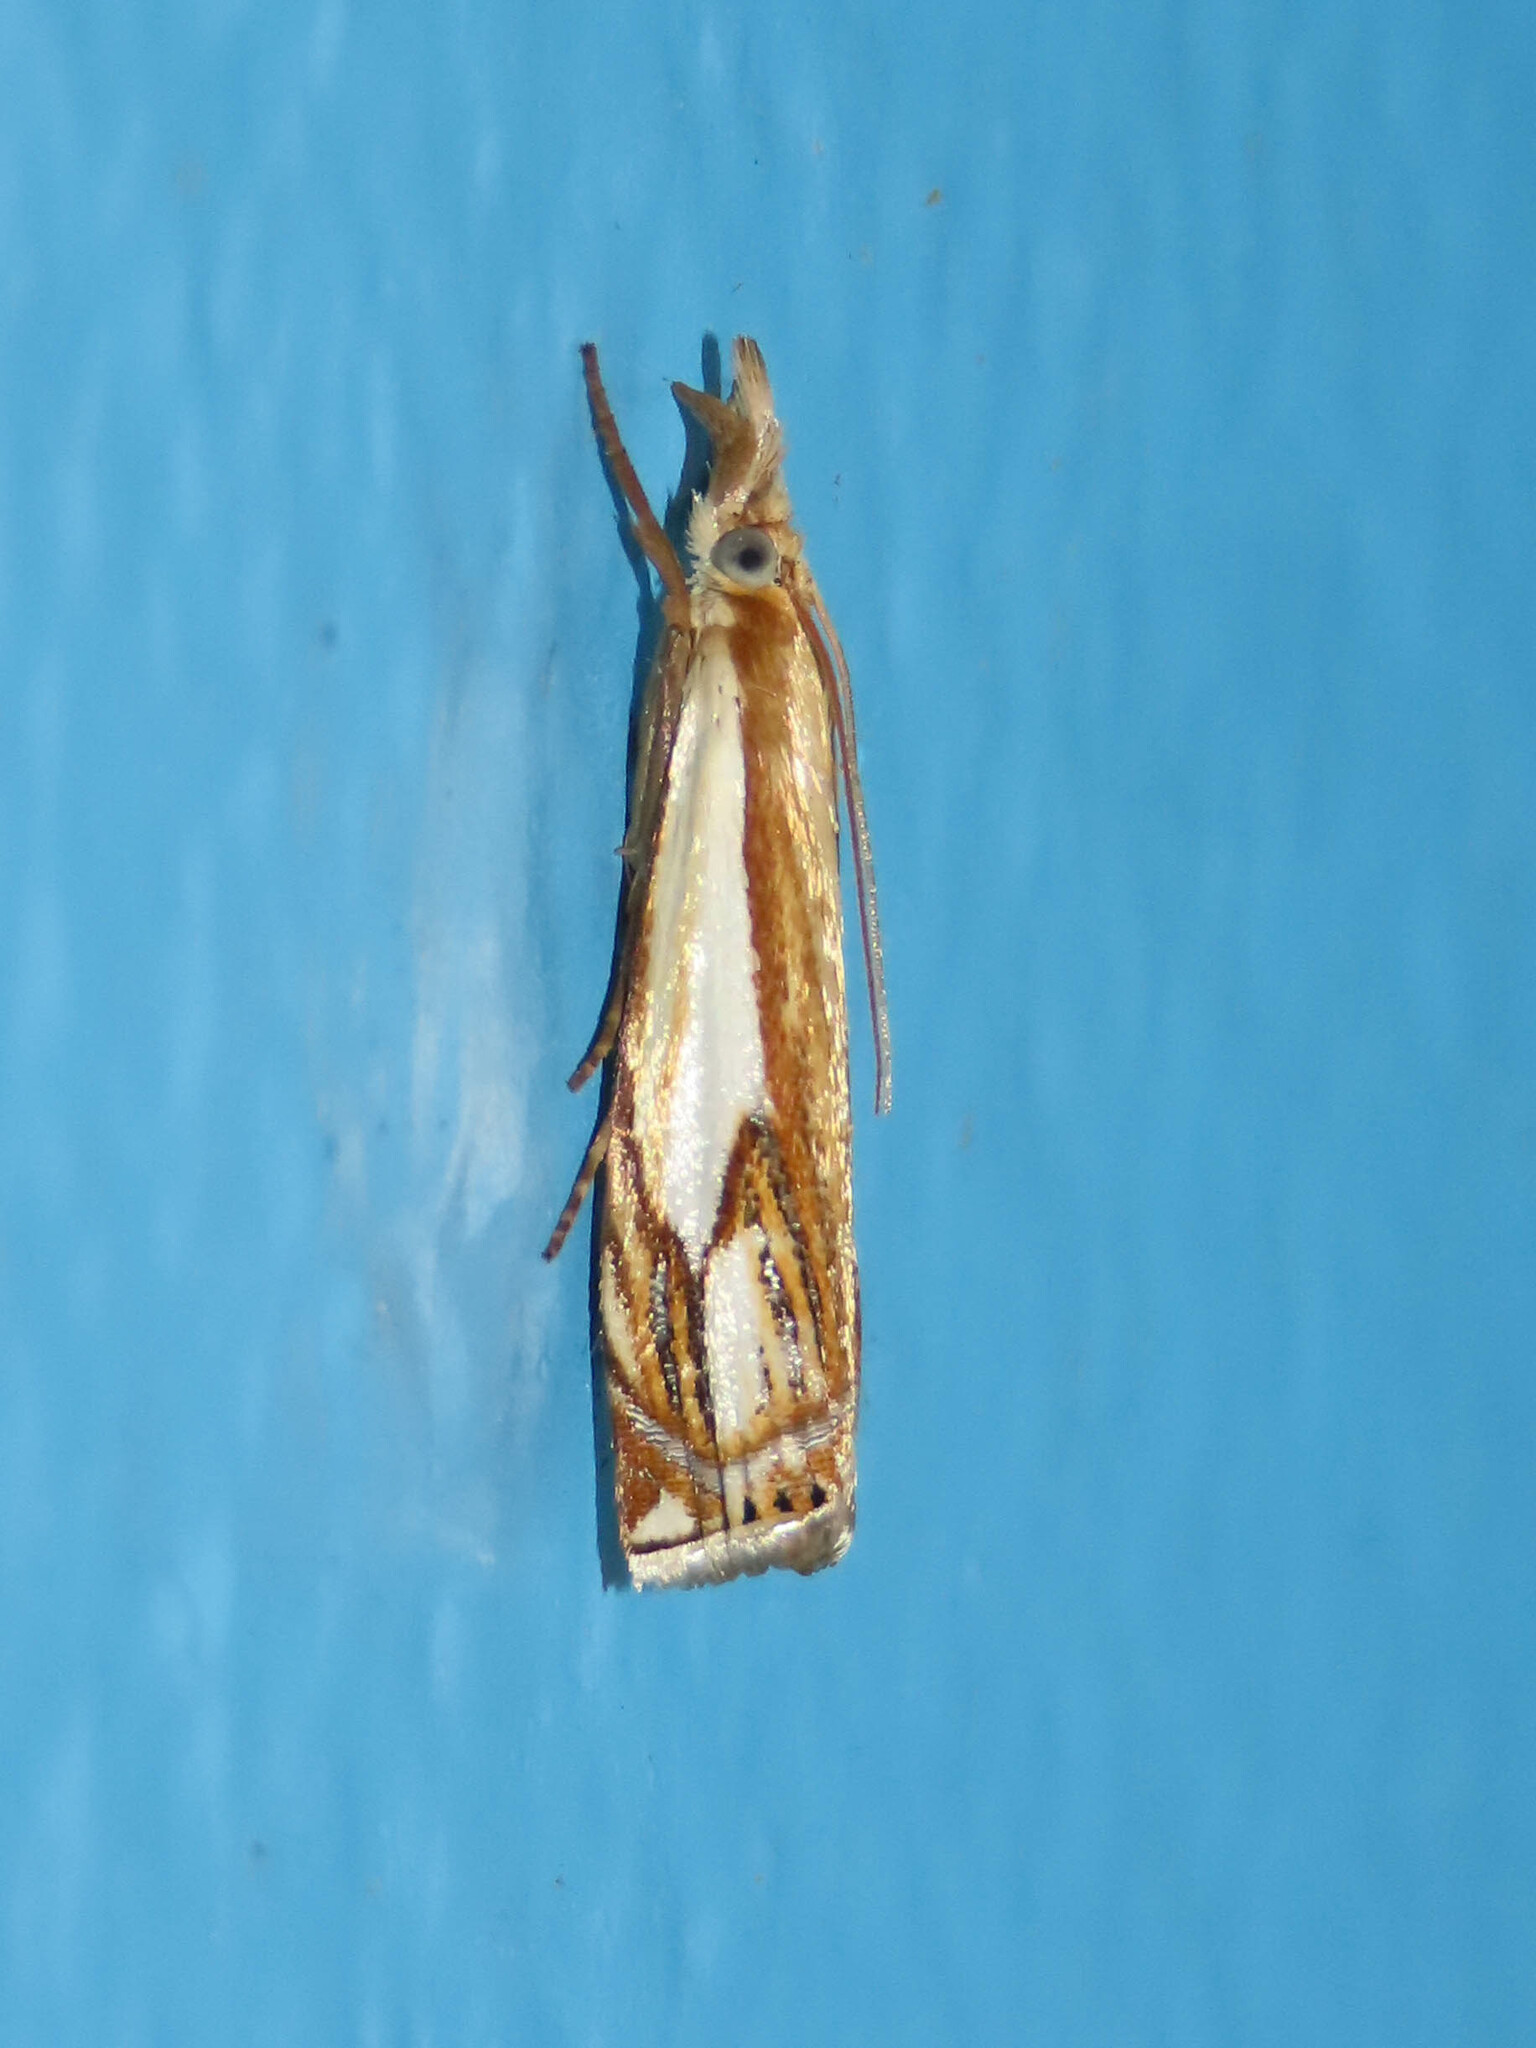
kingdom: Animalia
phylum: Arthropoda
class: Insecta
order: Lepidoptera
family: Crambidae
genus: Crambus
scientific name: Crambus agitatellus
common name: Double-banded grass-veneer
